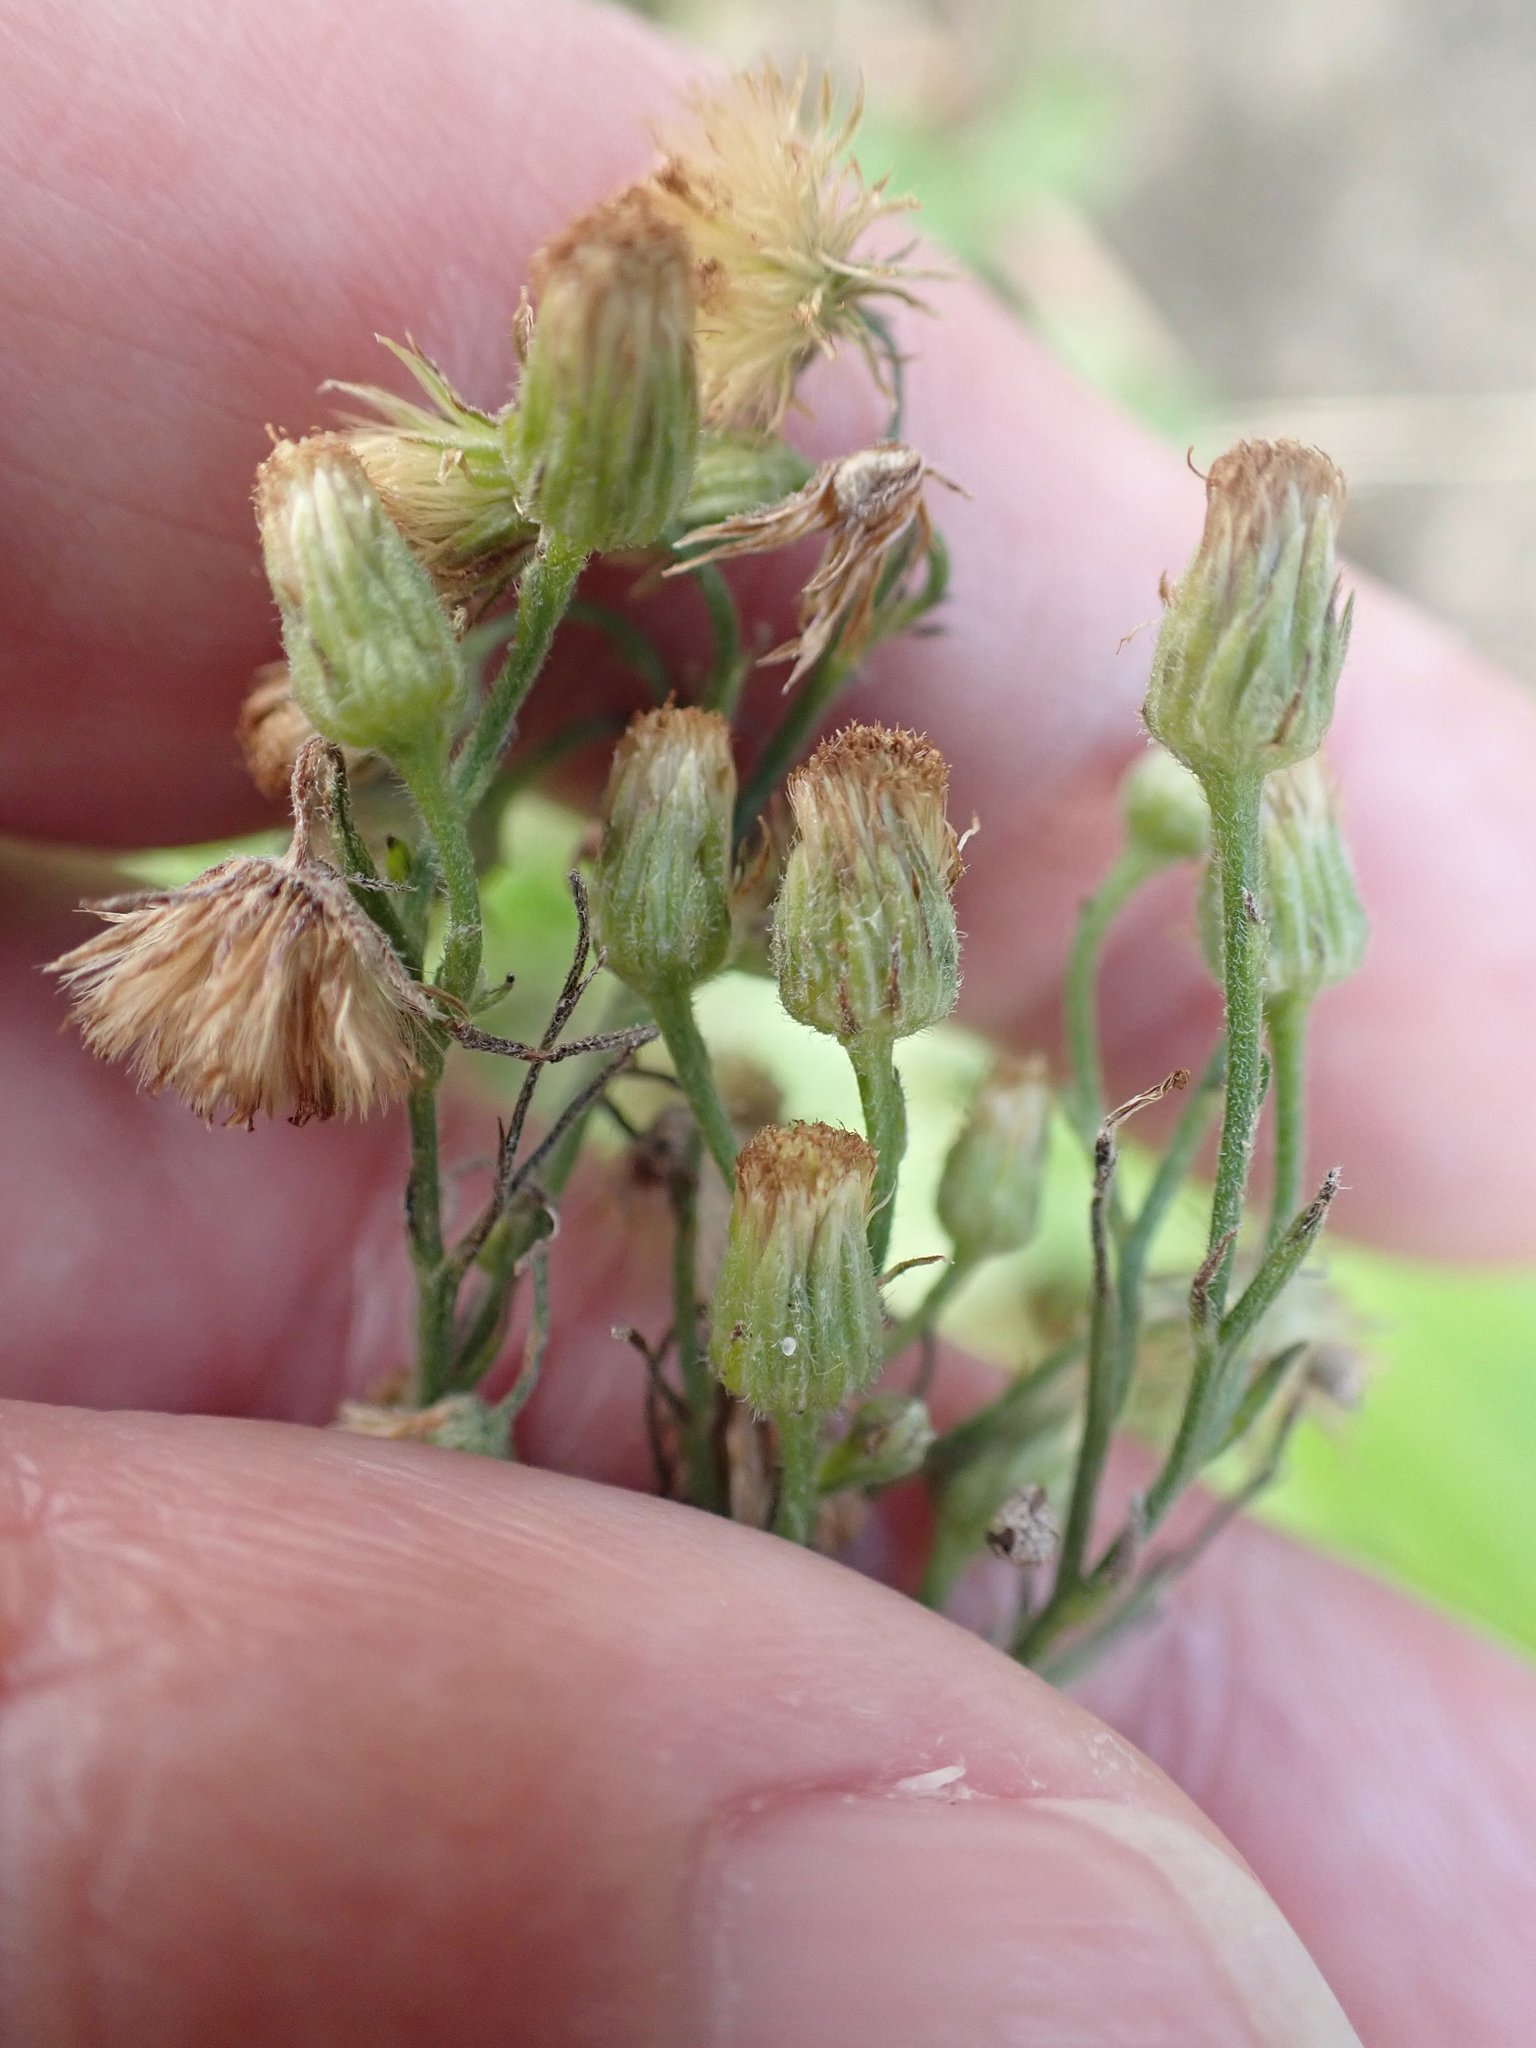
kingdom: Plantae
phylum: Tracheophyta
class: Magnoliopsida
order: Asterales
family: Asteraceae
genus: Erigeron
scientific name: Erigeron sumatrensis
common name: Daisy
